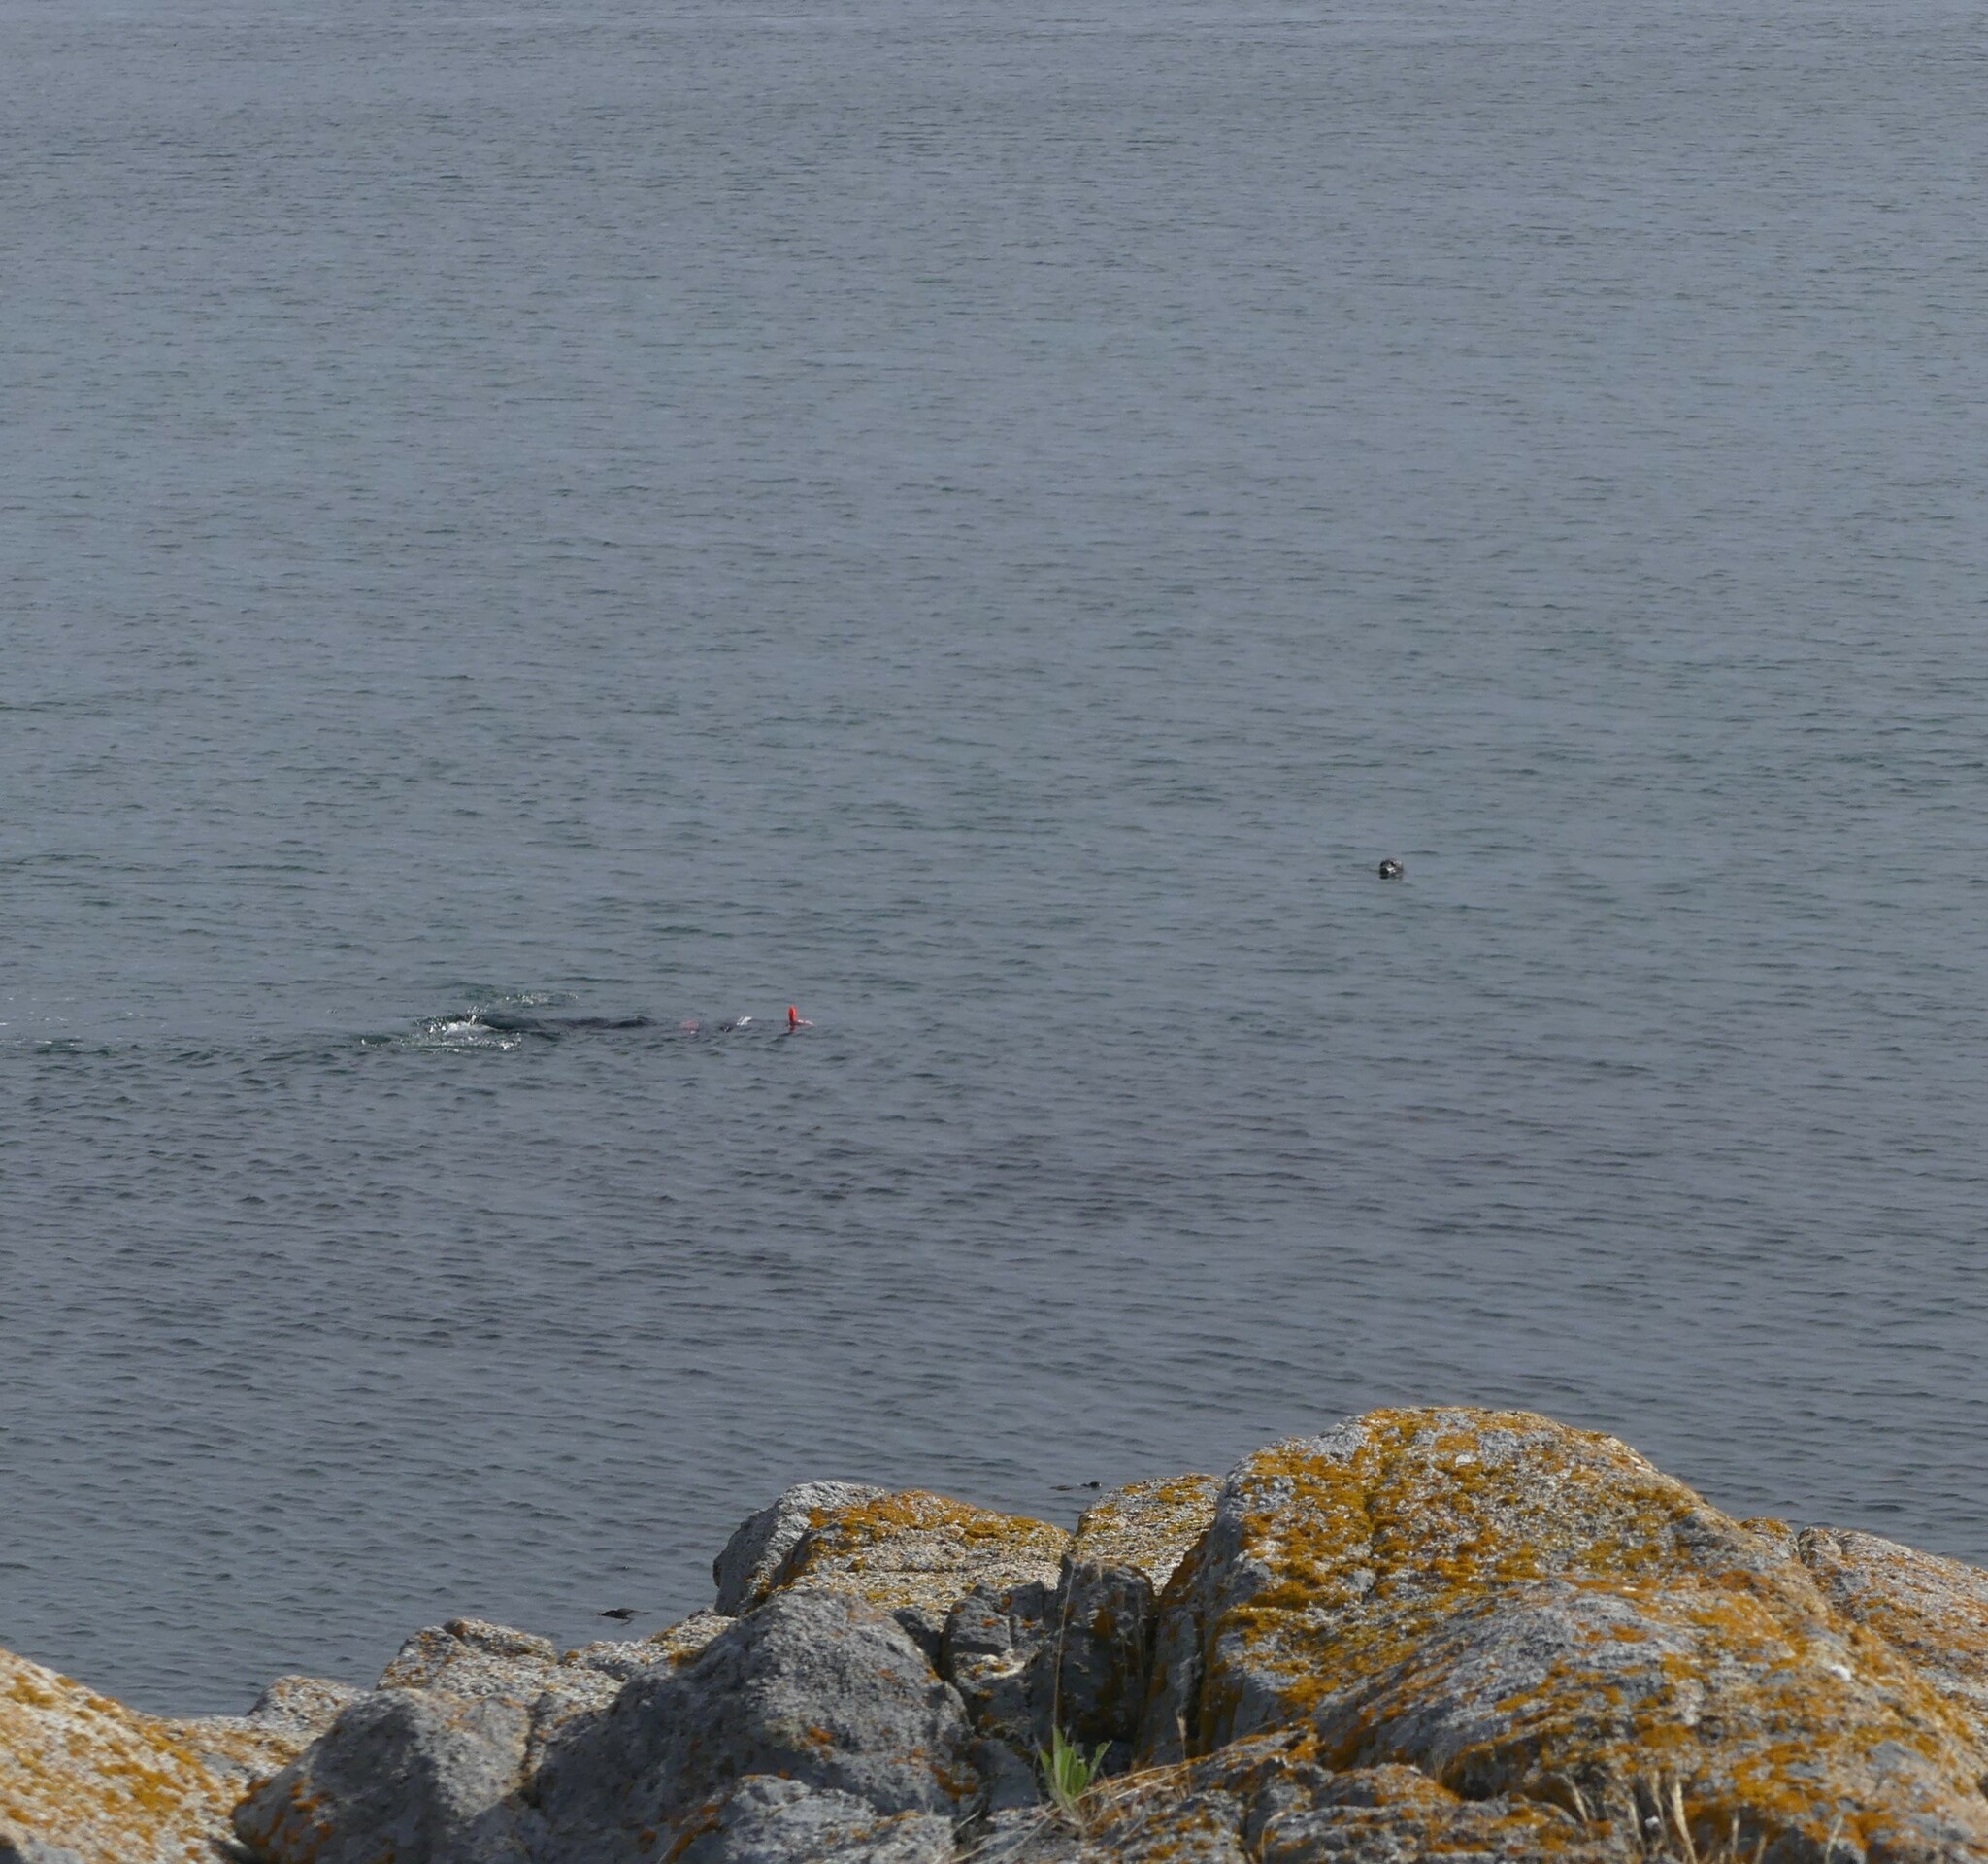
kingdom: Animalia
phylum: Chordata
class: Mammalia
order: Carnivora
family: Phocidae
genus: Phoca
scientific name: Phoca vitulina
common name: Harbor seal
